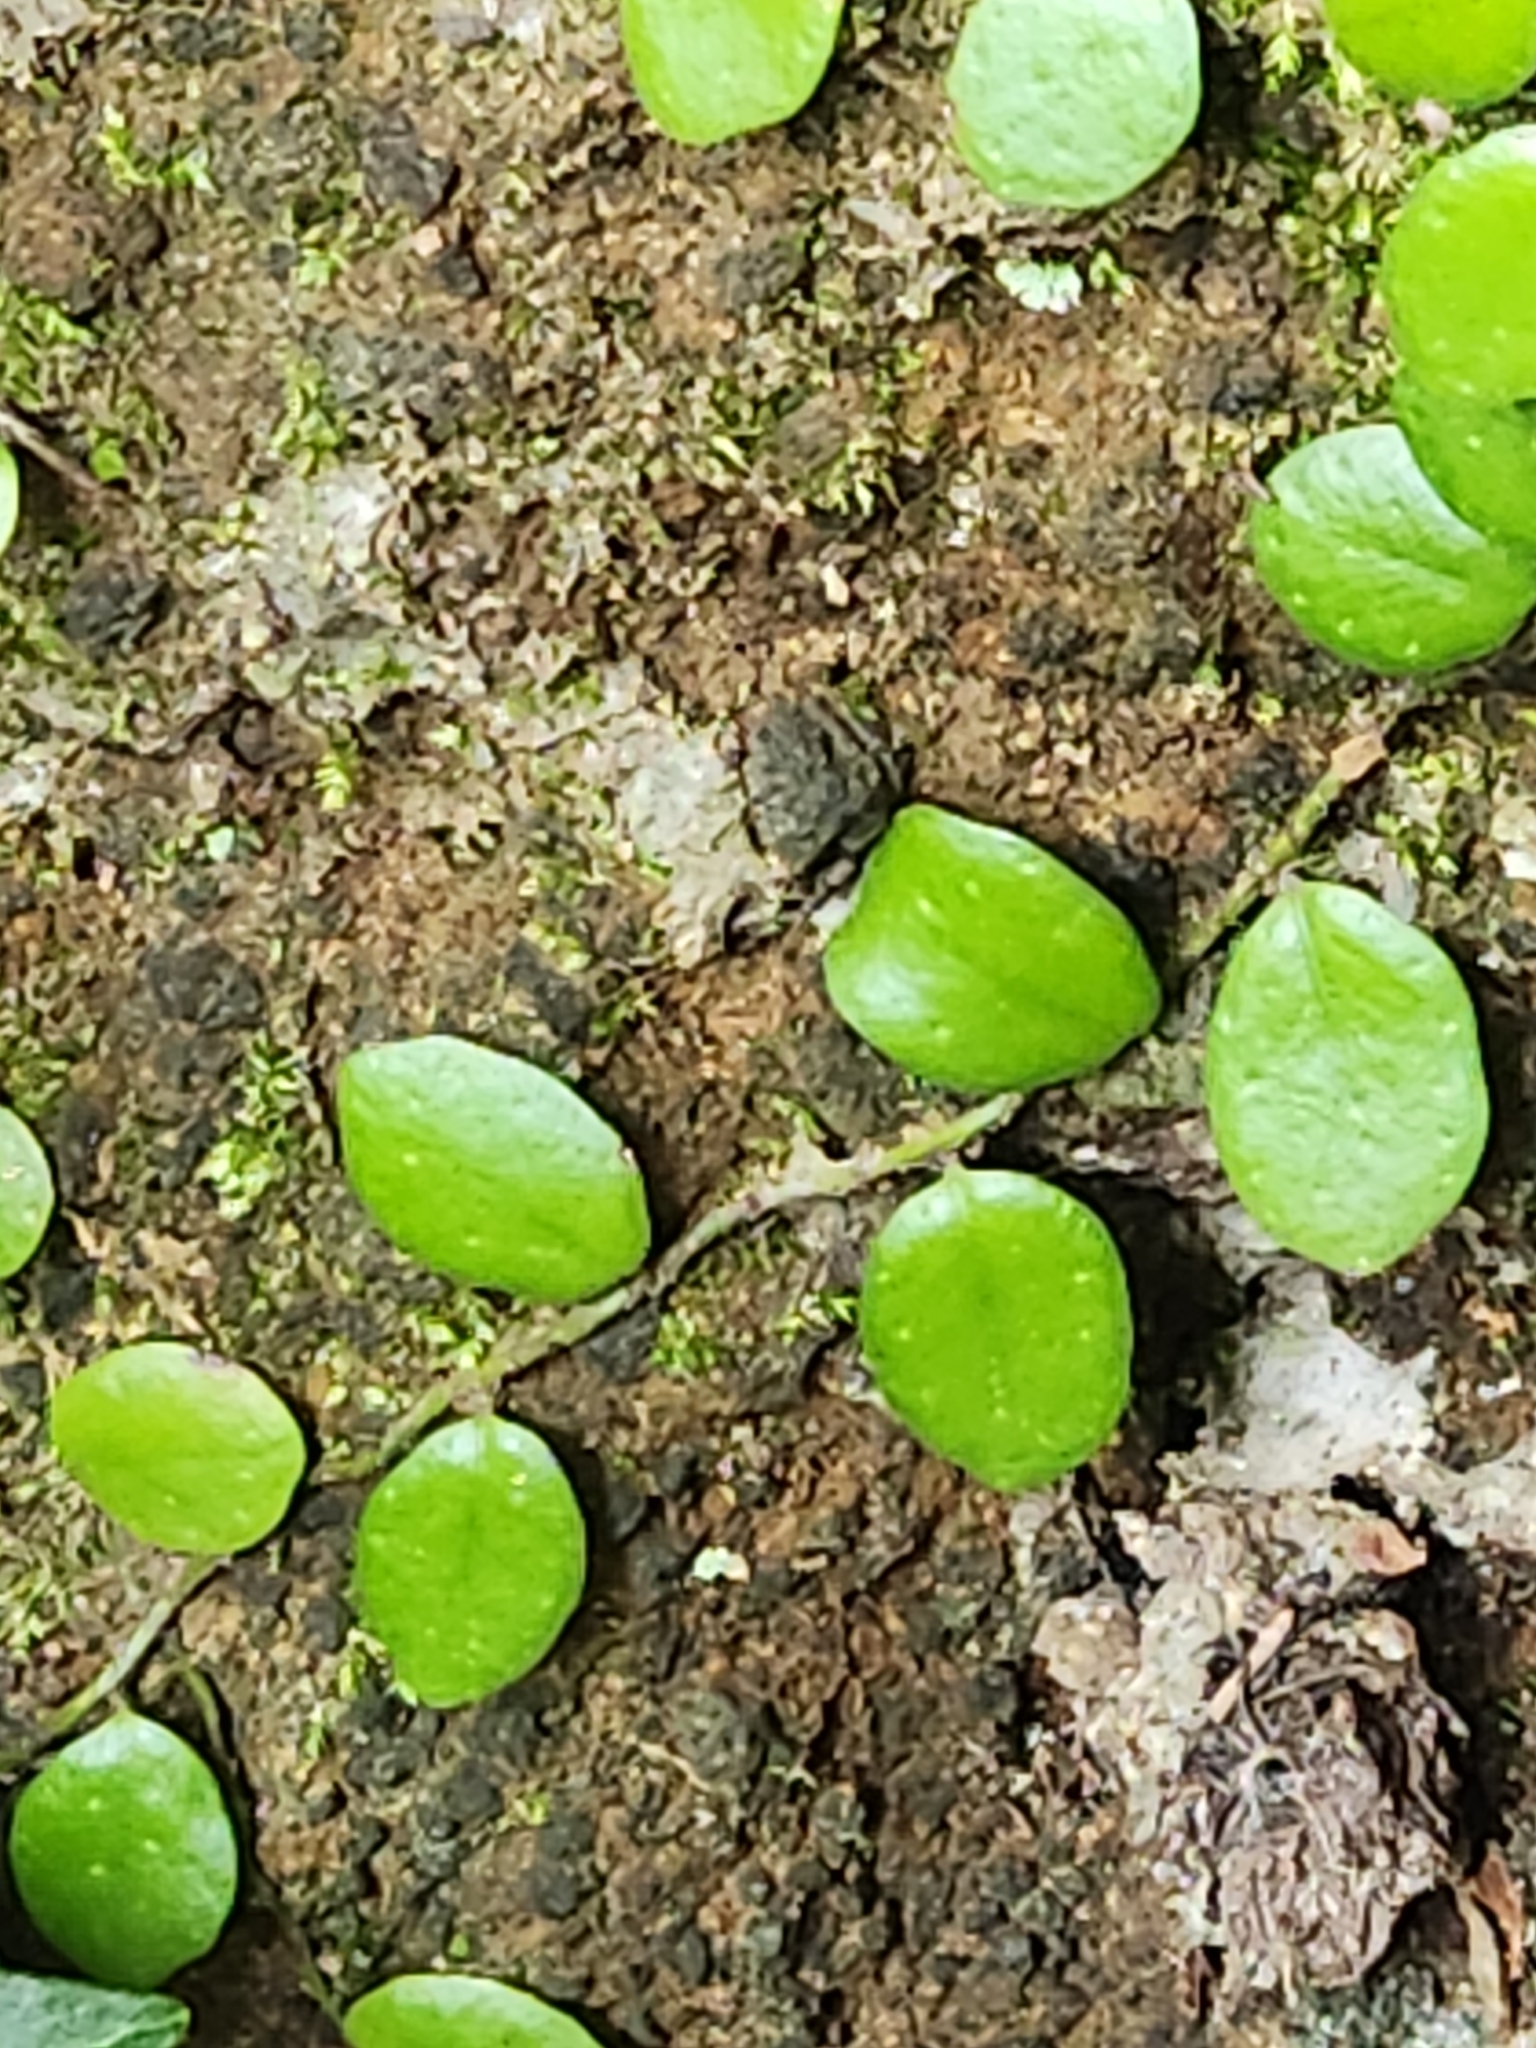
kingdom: Plantae
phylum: Tracheophyta
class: Polypodiopsida
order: Polypodiales
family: Polypodiaceae
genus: Lepisorus
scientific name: Lepisorus microphyllus
